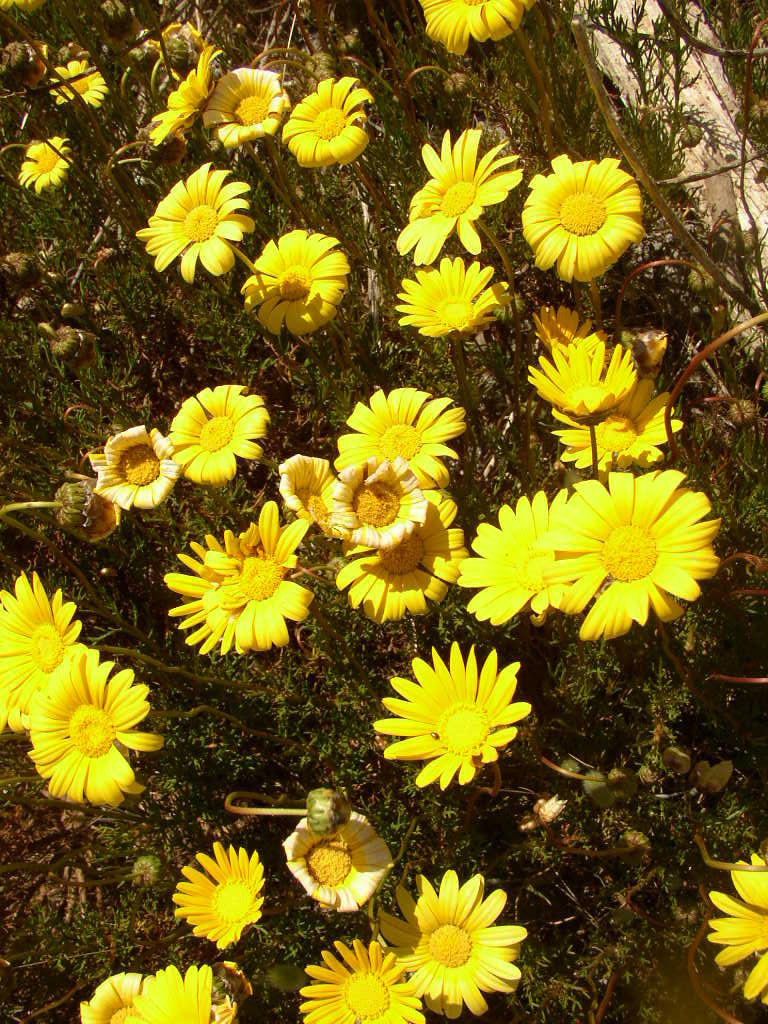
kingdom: Plantae
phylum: Tracheophyta
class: Magnoliopsida
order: Asterales
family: Asteraceae
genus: Ursinia
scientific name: Ursinia paleacea
